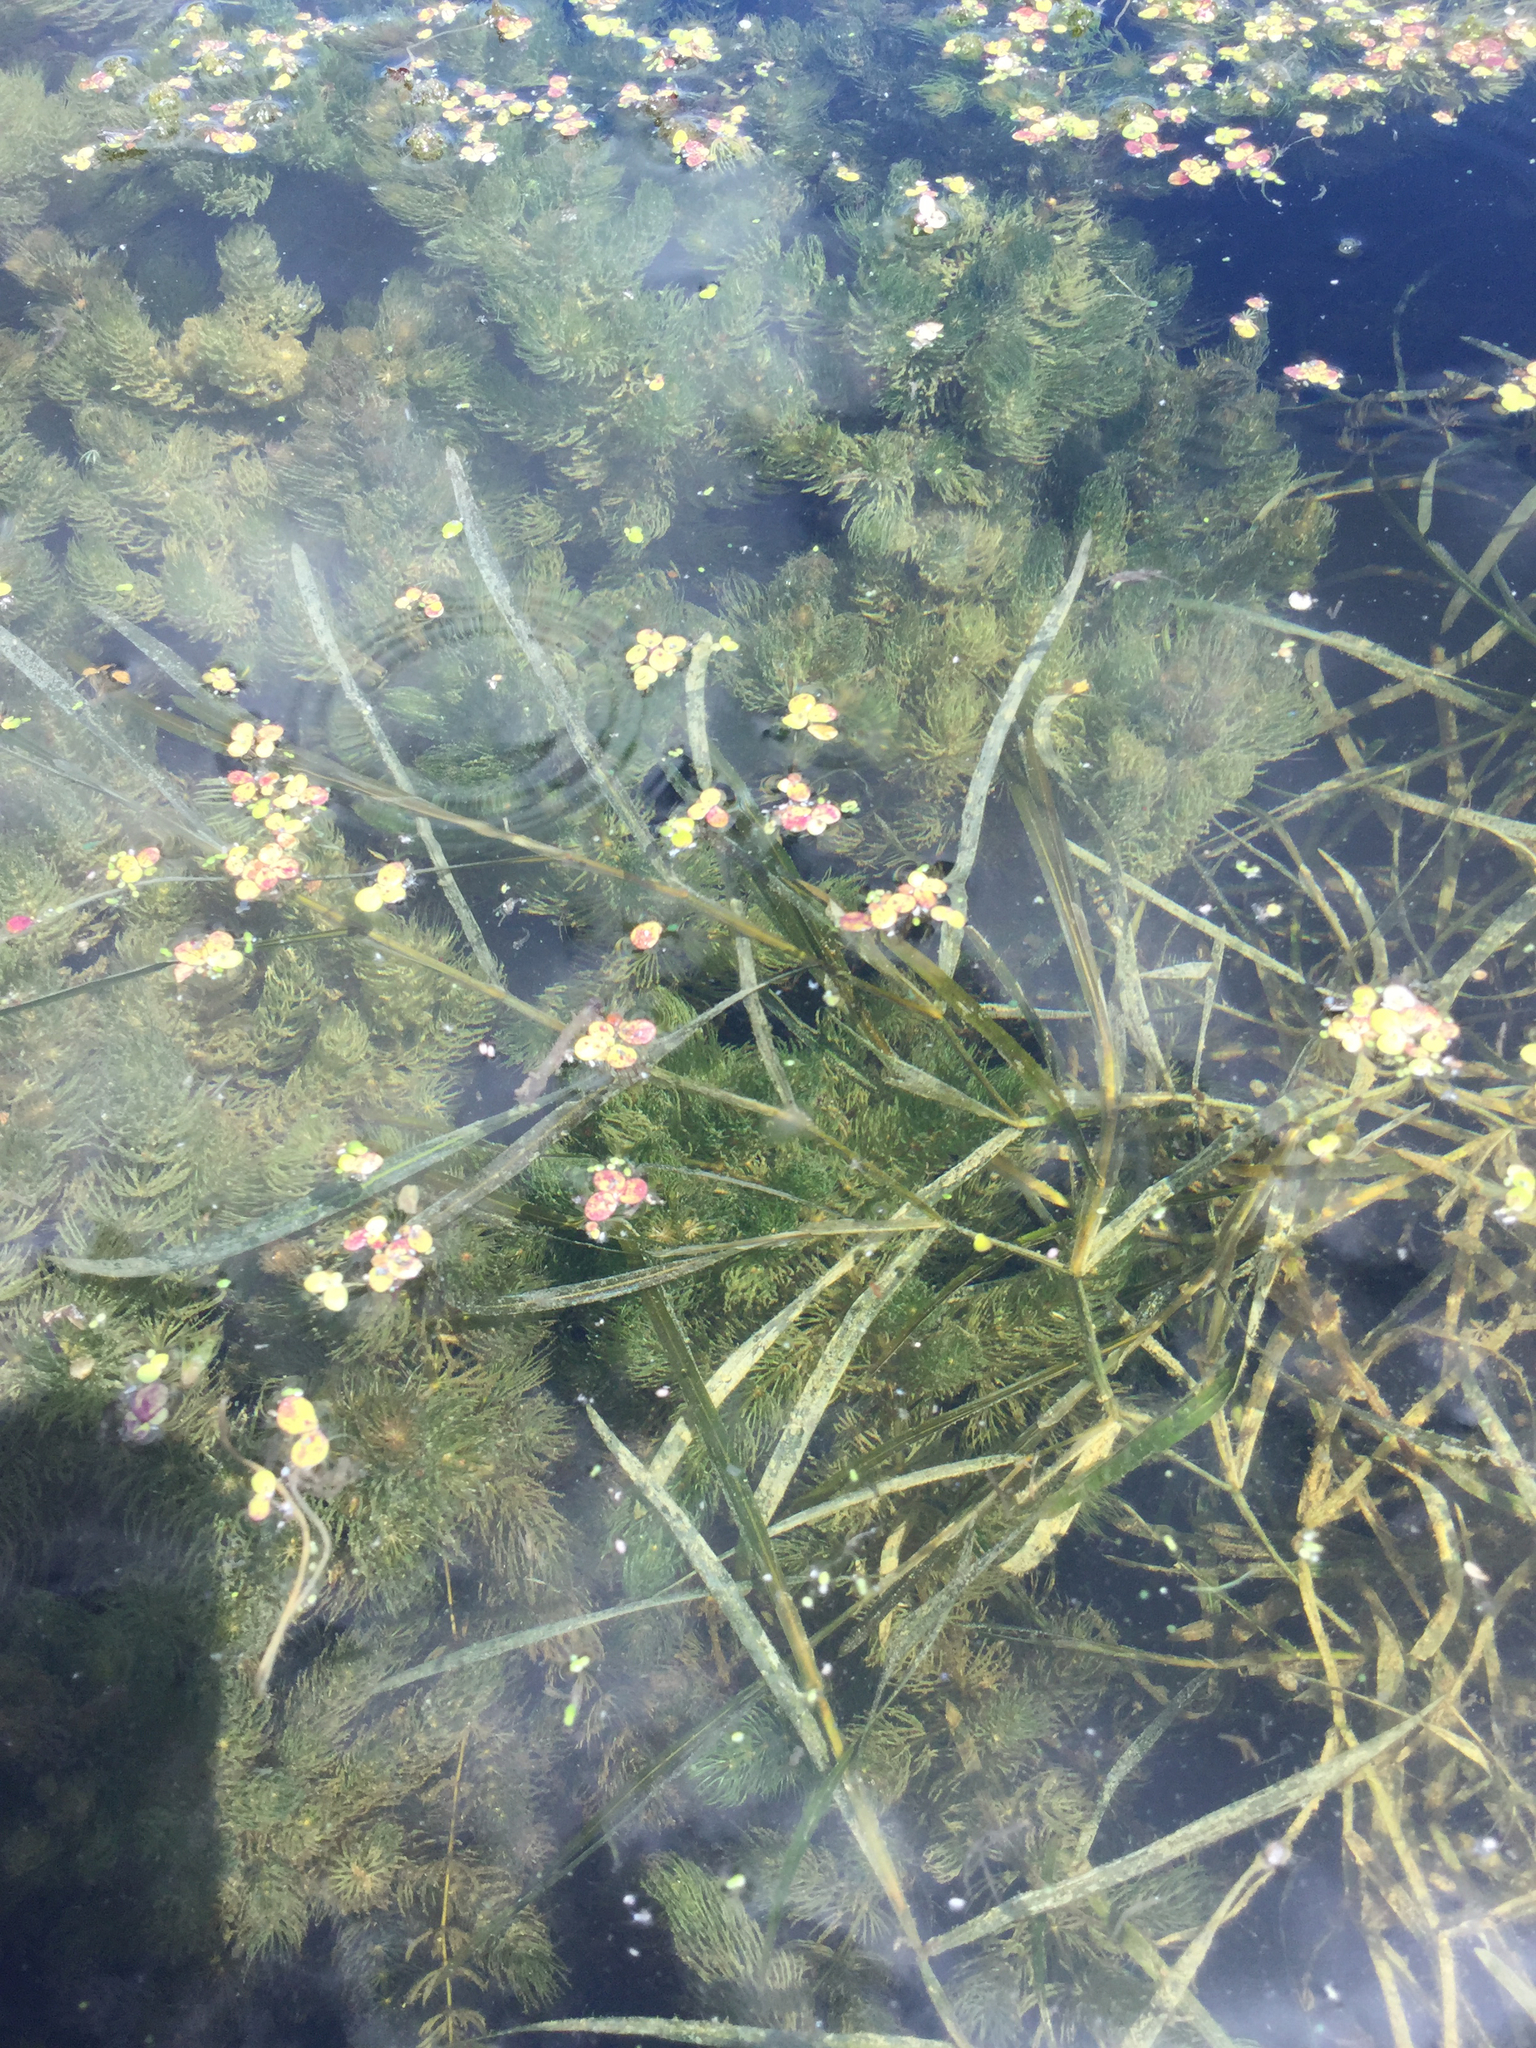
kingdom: Plantae
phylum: Tracheophyta
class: Liliopsida
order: Alismatales
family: Potamogetonaceae
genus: Potamogeton
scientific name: Potamogeton zosteriformis
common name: Eelgrass pondweed
